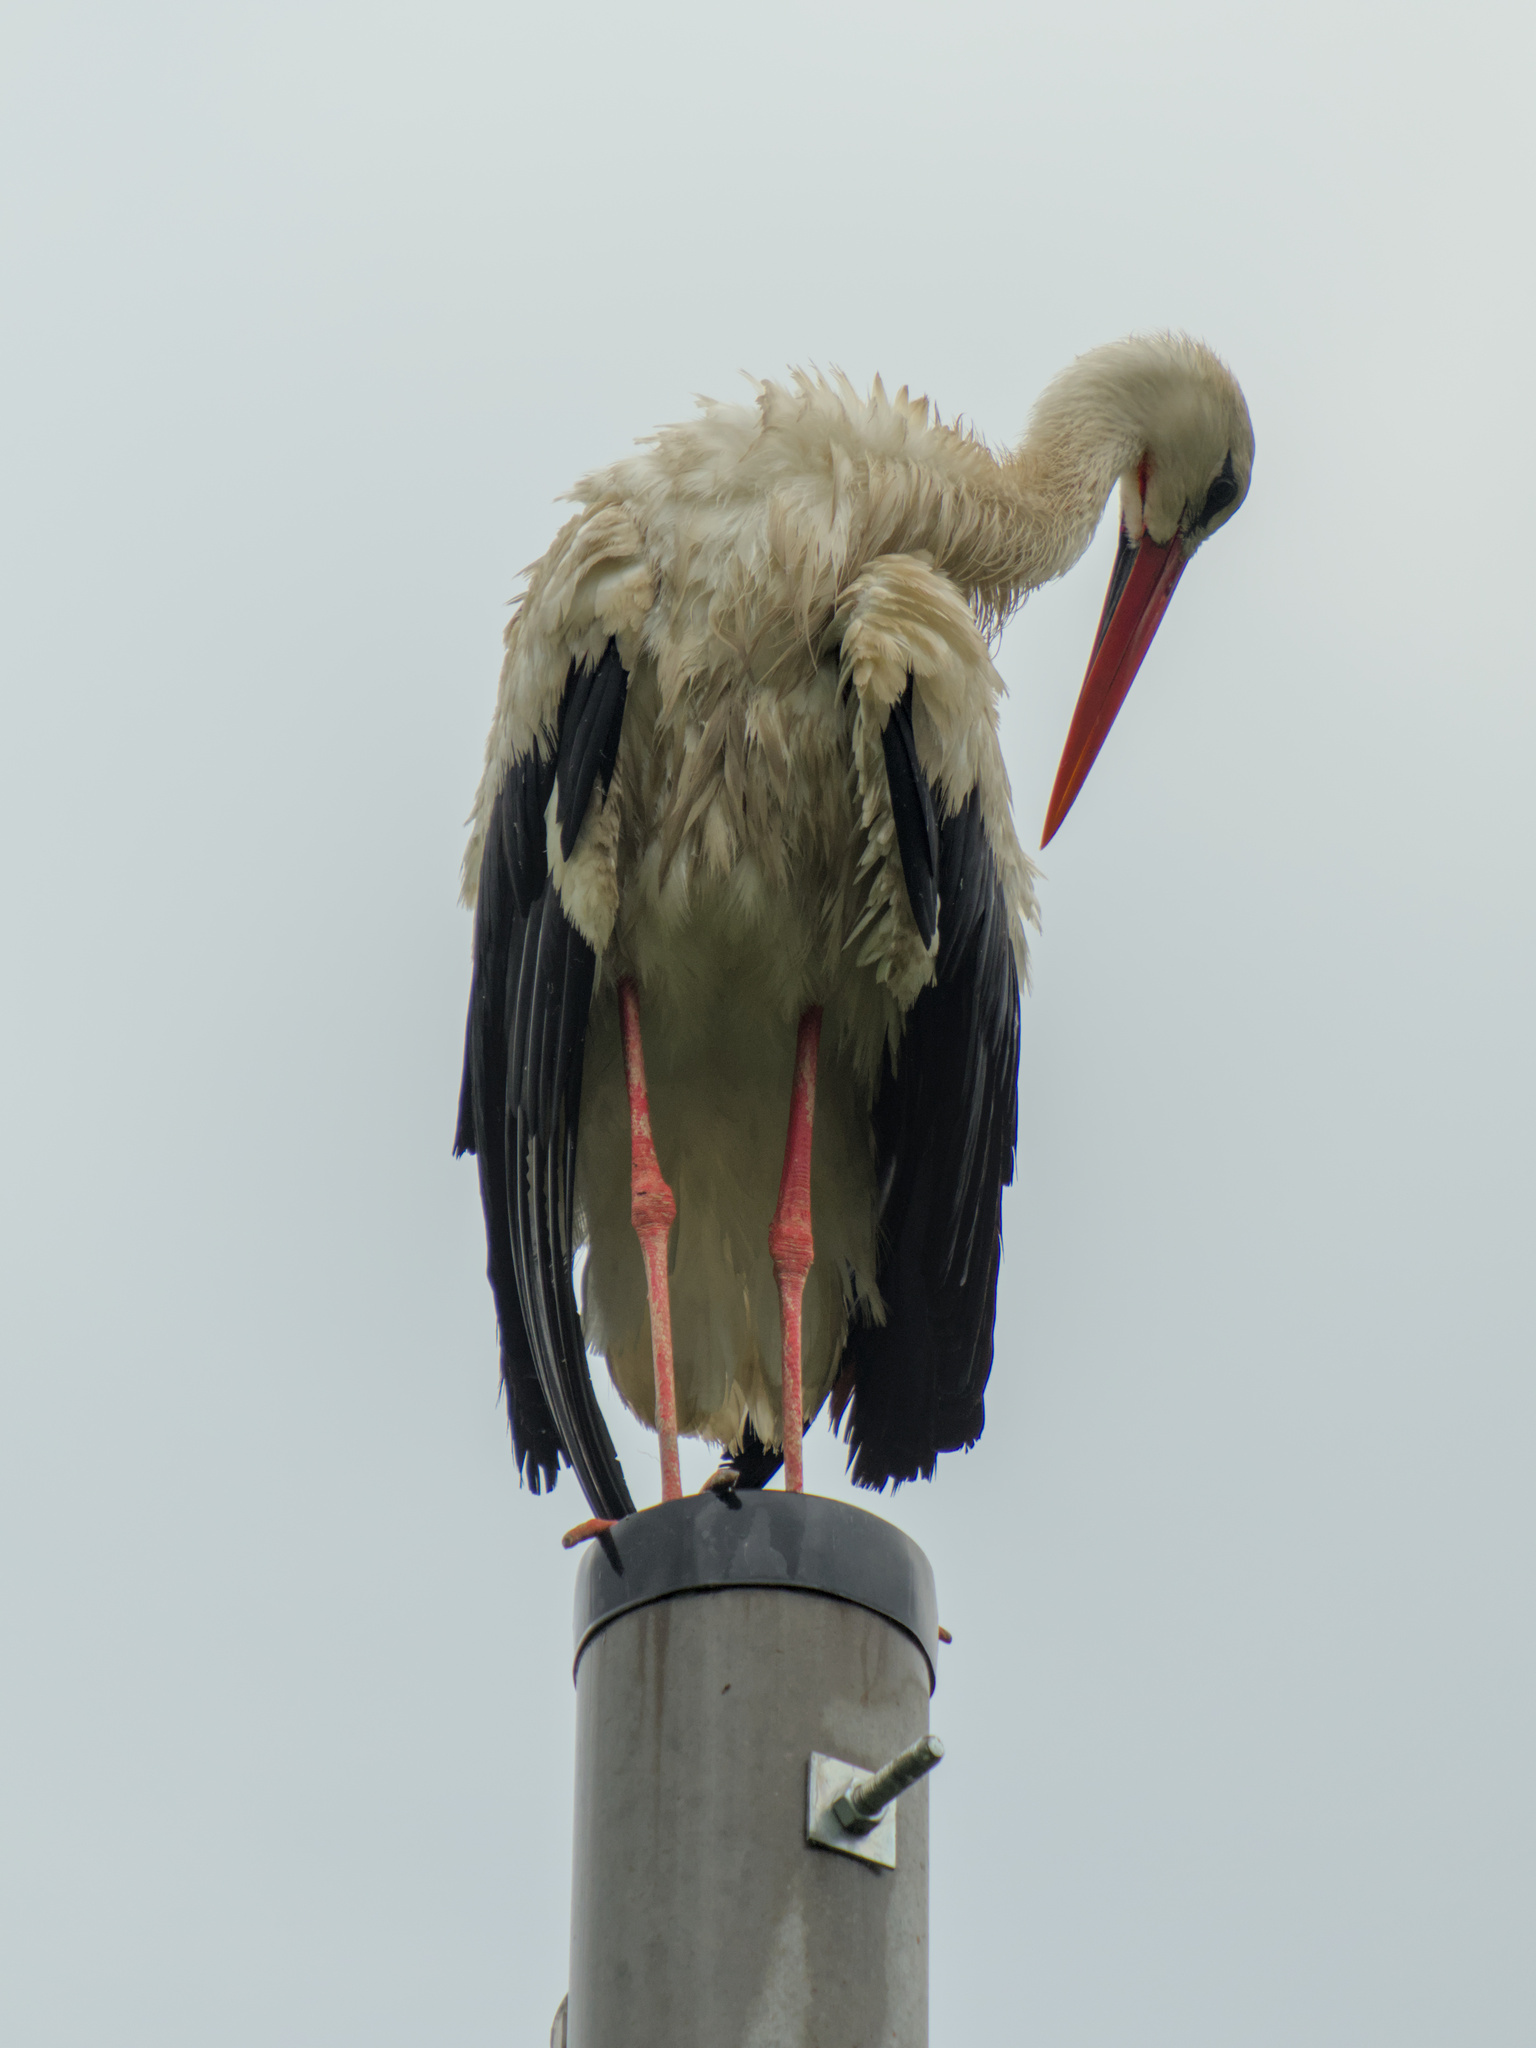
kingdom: Animalia
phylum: Chordata
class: Aves
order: Ciconiiformes
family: Ciconiidae
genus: Ciconia
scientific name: Ciconia ciconia
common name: White stork
